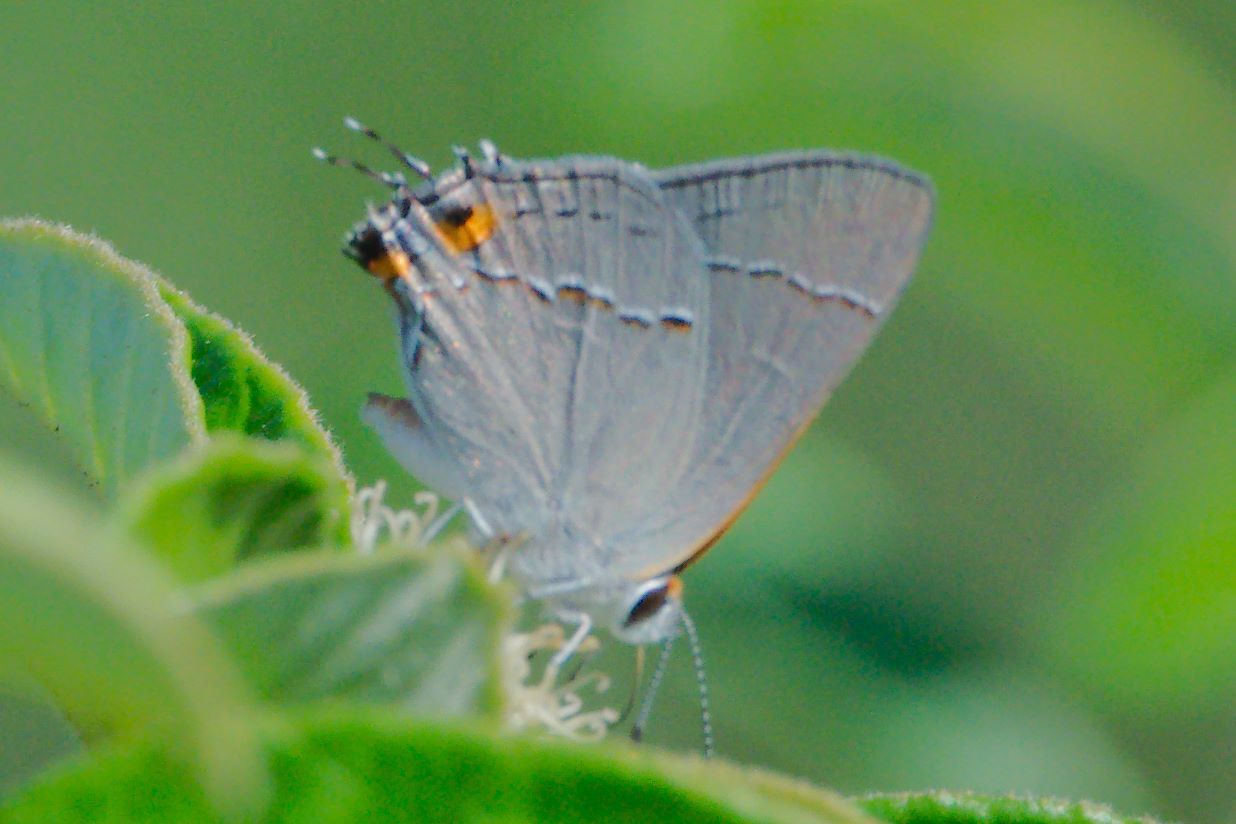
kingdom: Animalia
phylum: Arthropoda
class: Insecta
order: Lepidoptera
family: Lycaenidae
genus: Strymon
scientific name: Strymon melinus
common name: Gray hairstreak
